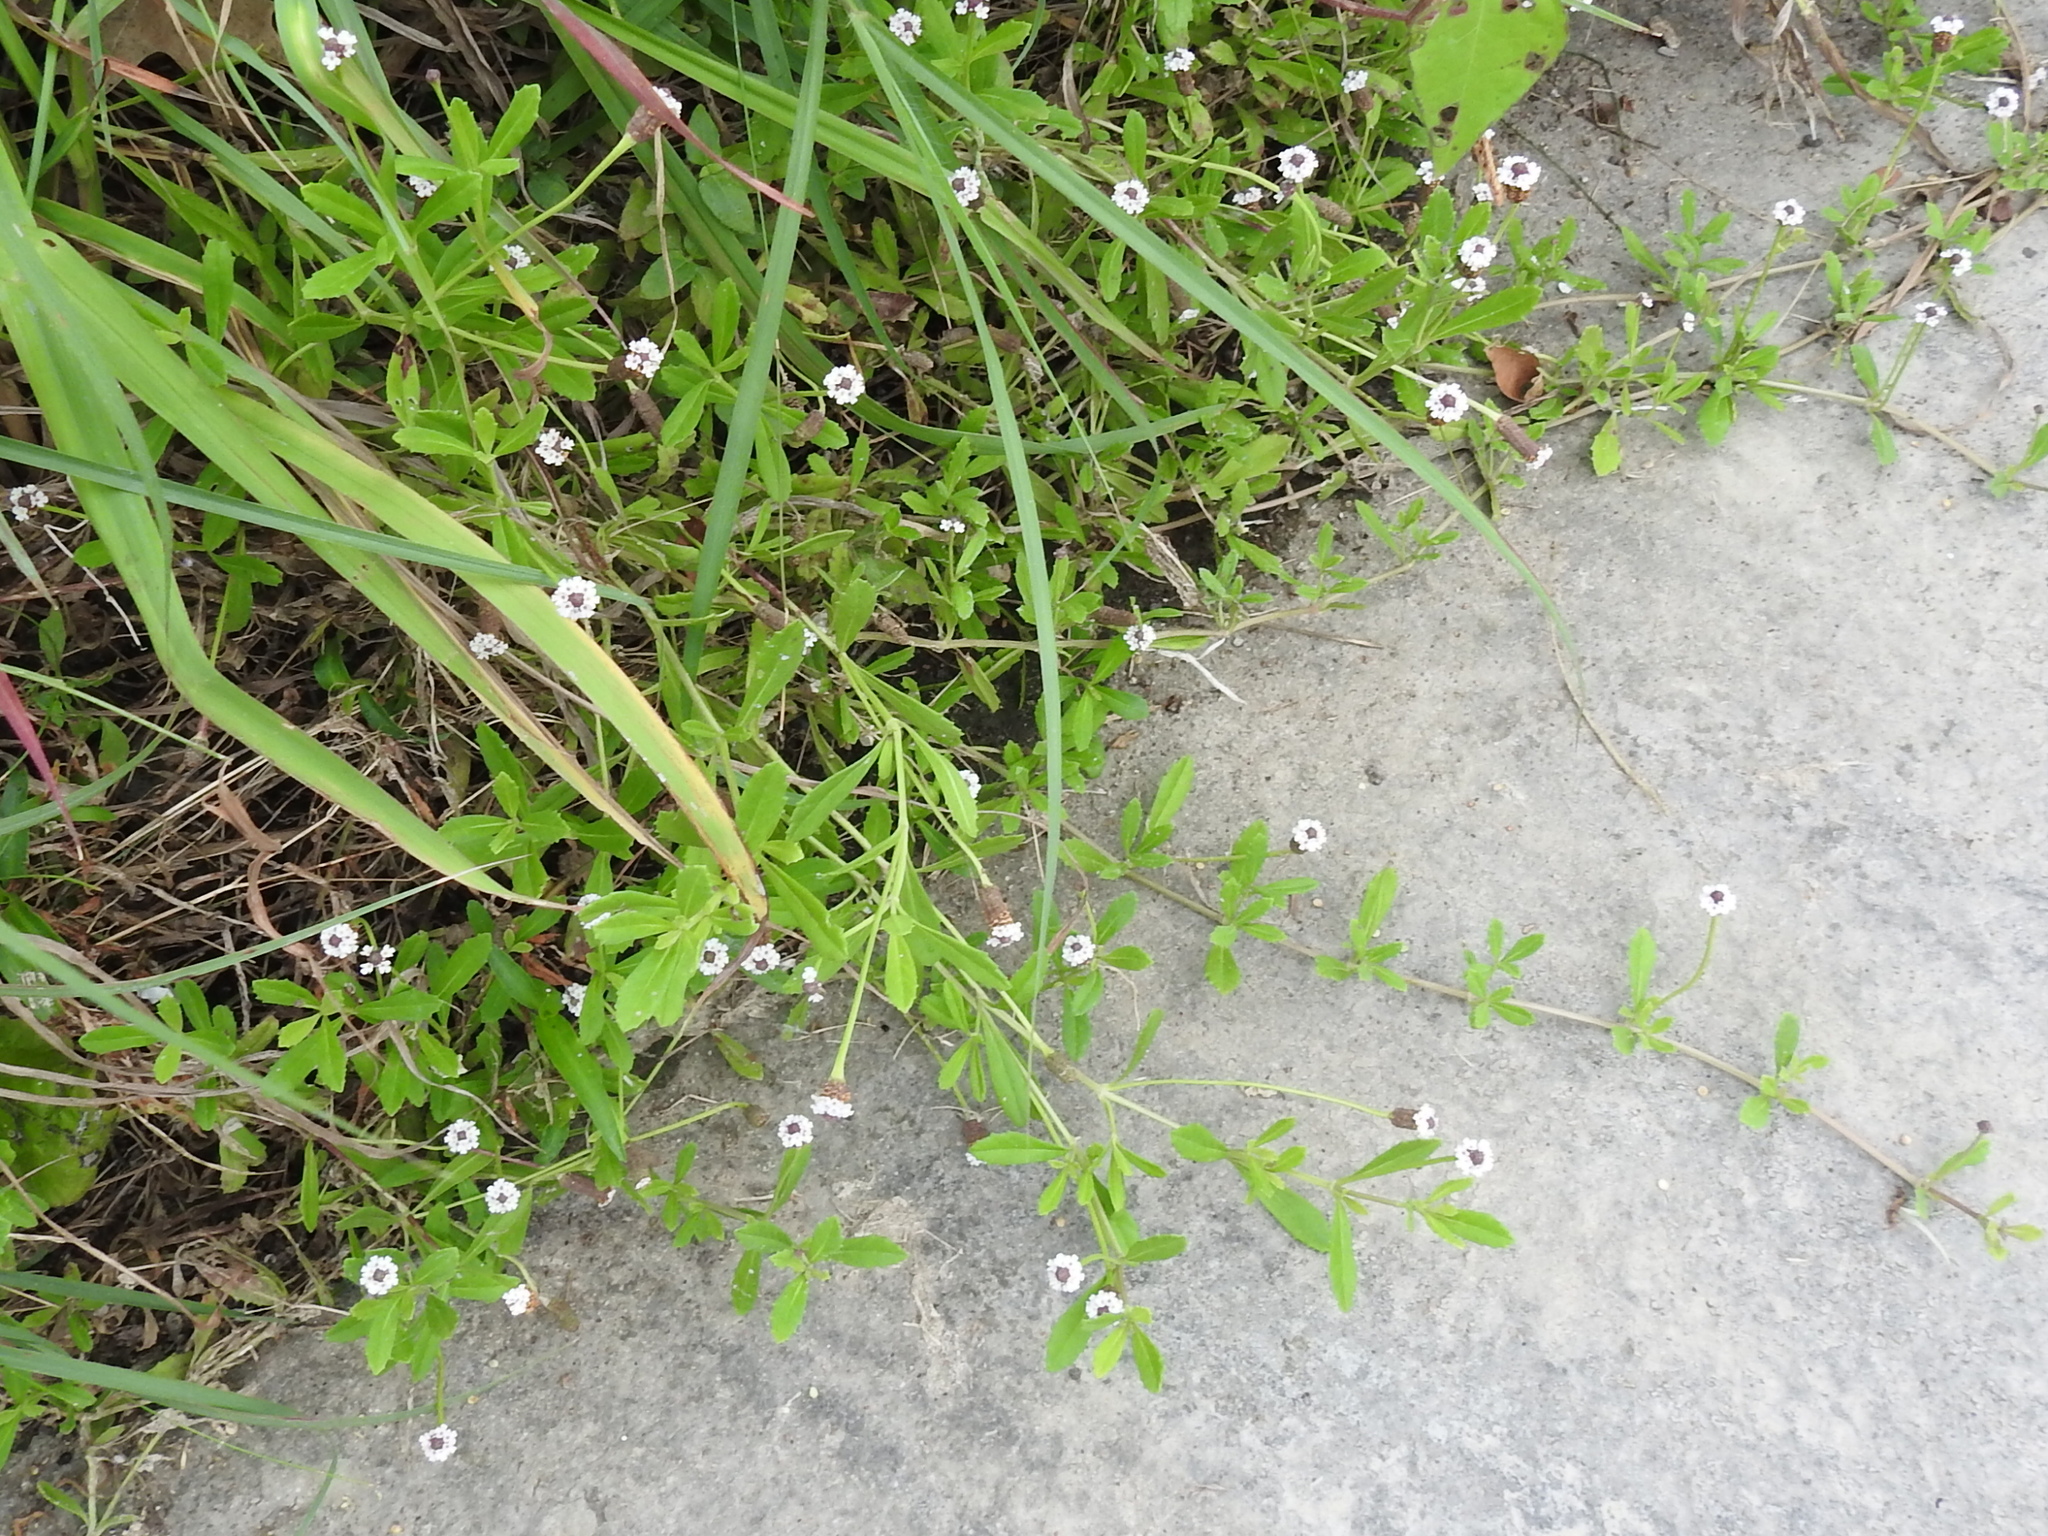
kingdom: Plantae
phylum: Tracheophyta
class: Magnoliopsida
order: Lamiales
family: Verbenaceae
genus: Phyla
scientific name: Phyla nodiflora
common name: Frogfruit
